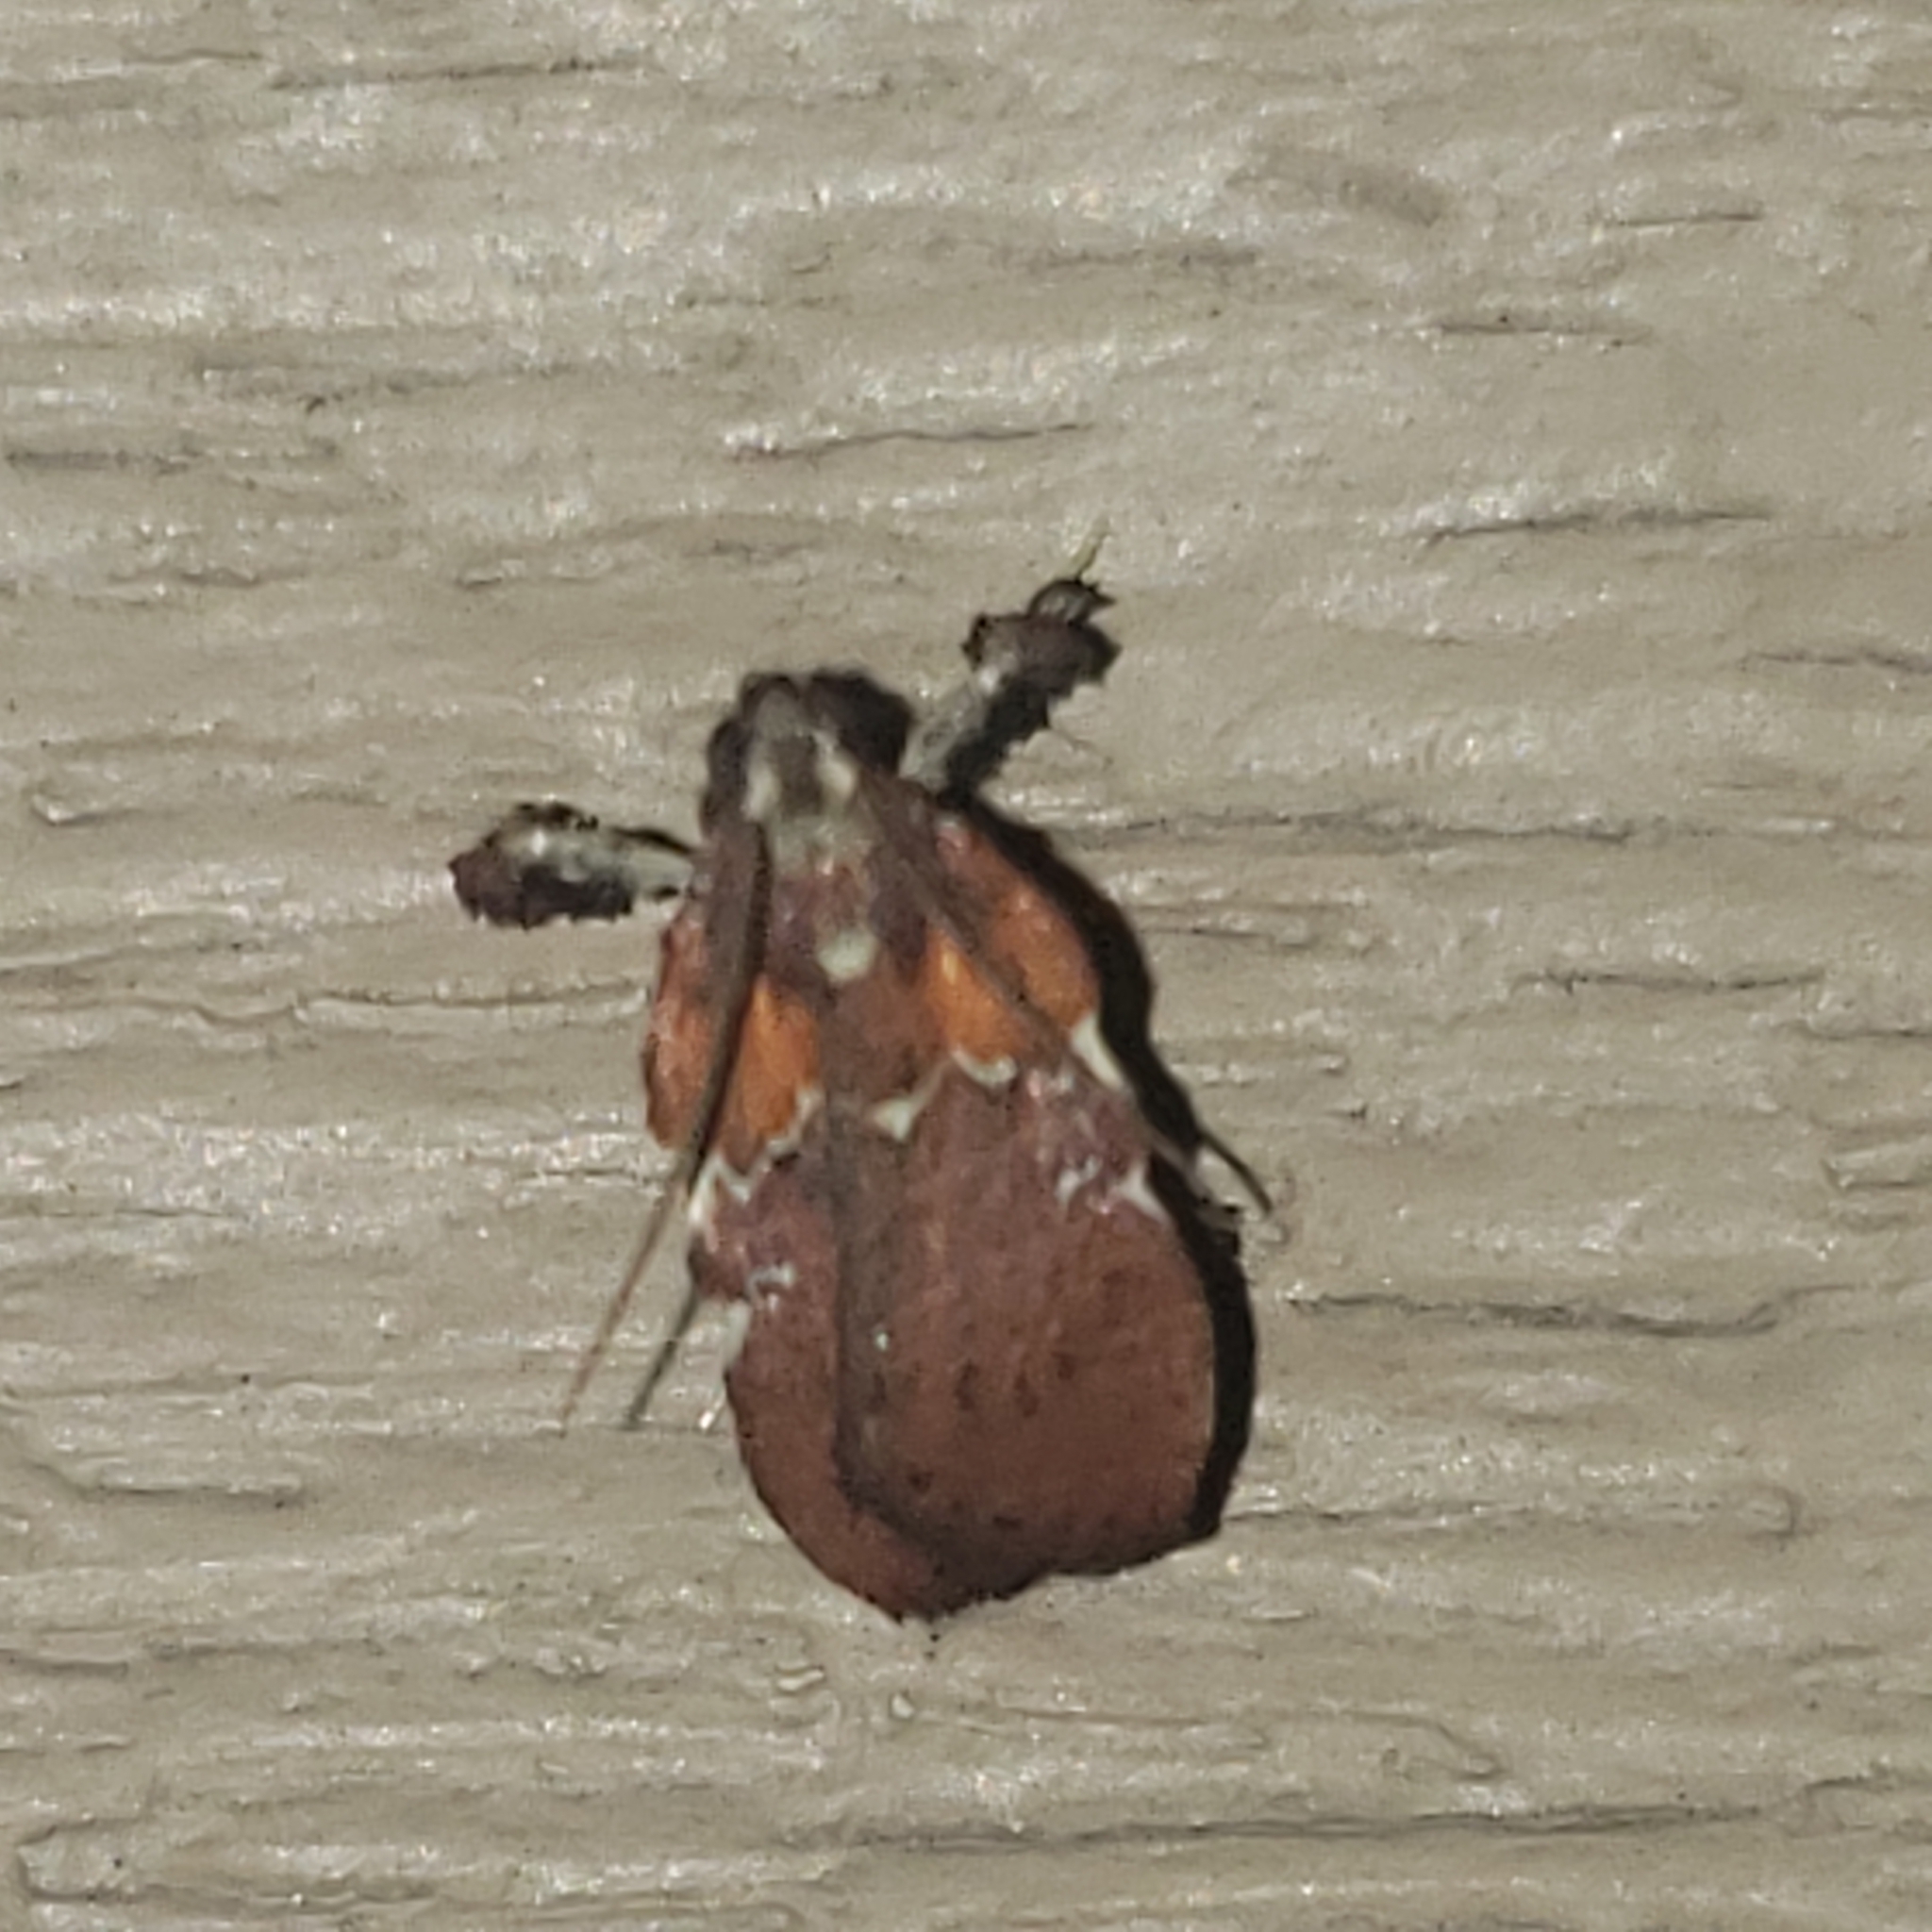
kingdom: Animalia
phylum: Arthropoda
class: Insecta
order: Lepidoptera
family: Pyralidae
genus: Galasa
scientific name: Galasa nigrinodis
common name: Boxwood leaftier moth
